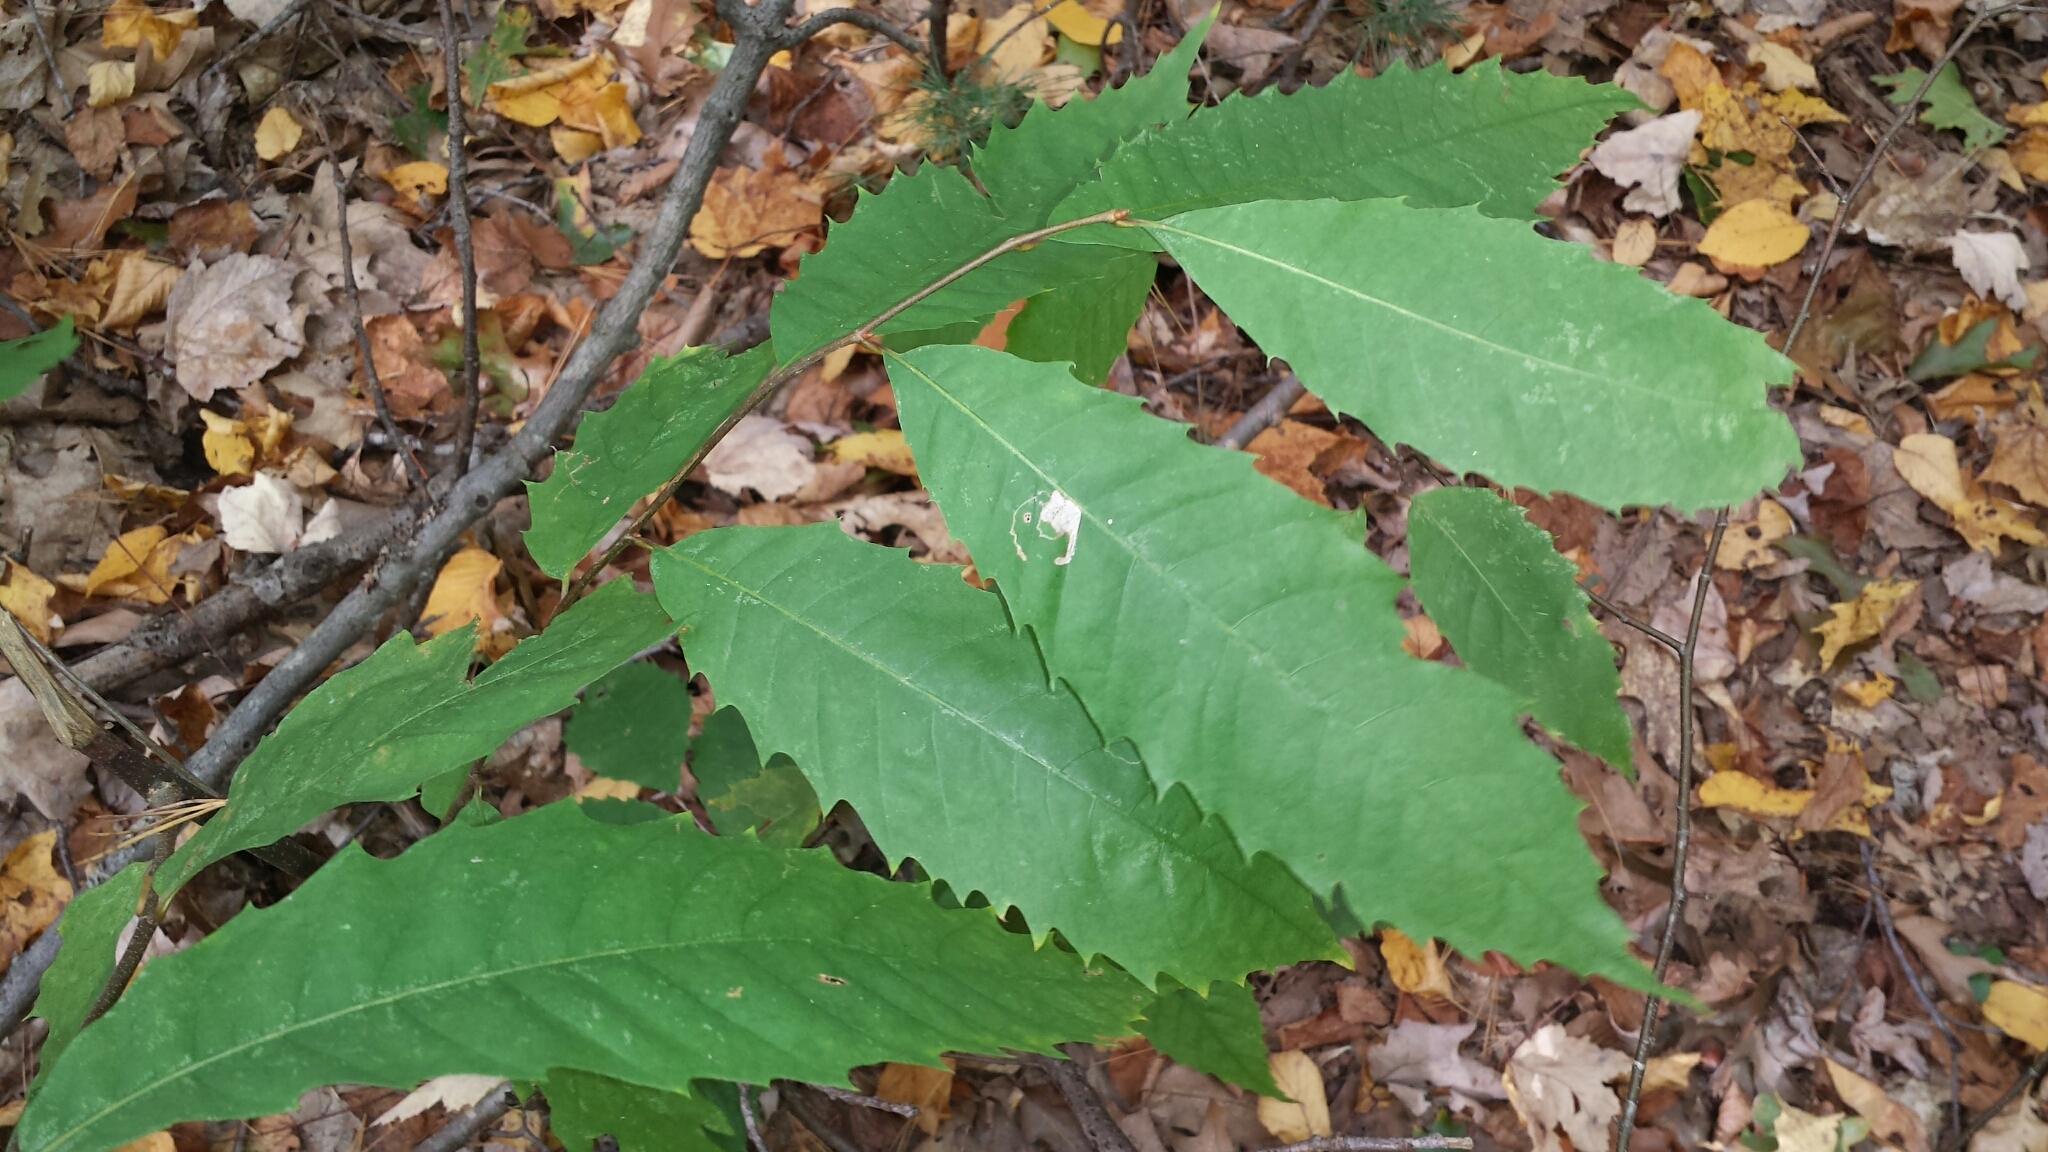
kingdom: Plantae
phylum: Tracheophyta
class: Magnoliopsida
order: Fagales
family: Fagaceae
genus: Castanea
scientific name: Castanea dentata
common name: American chestnut
